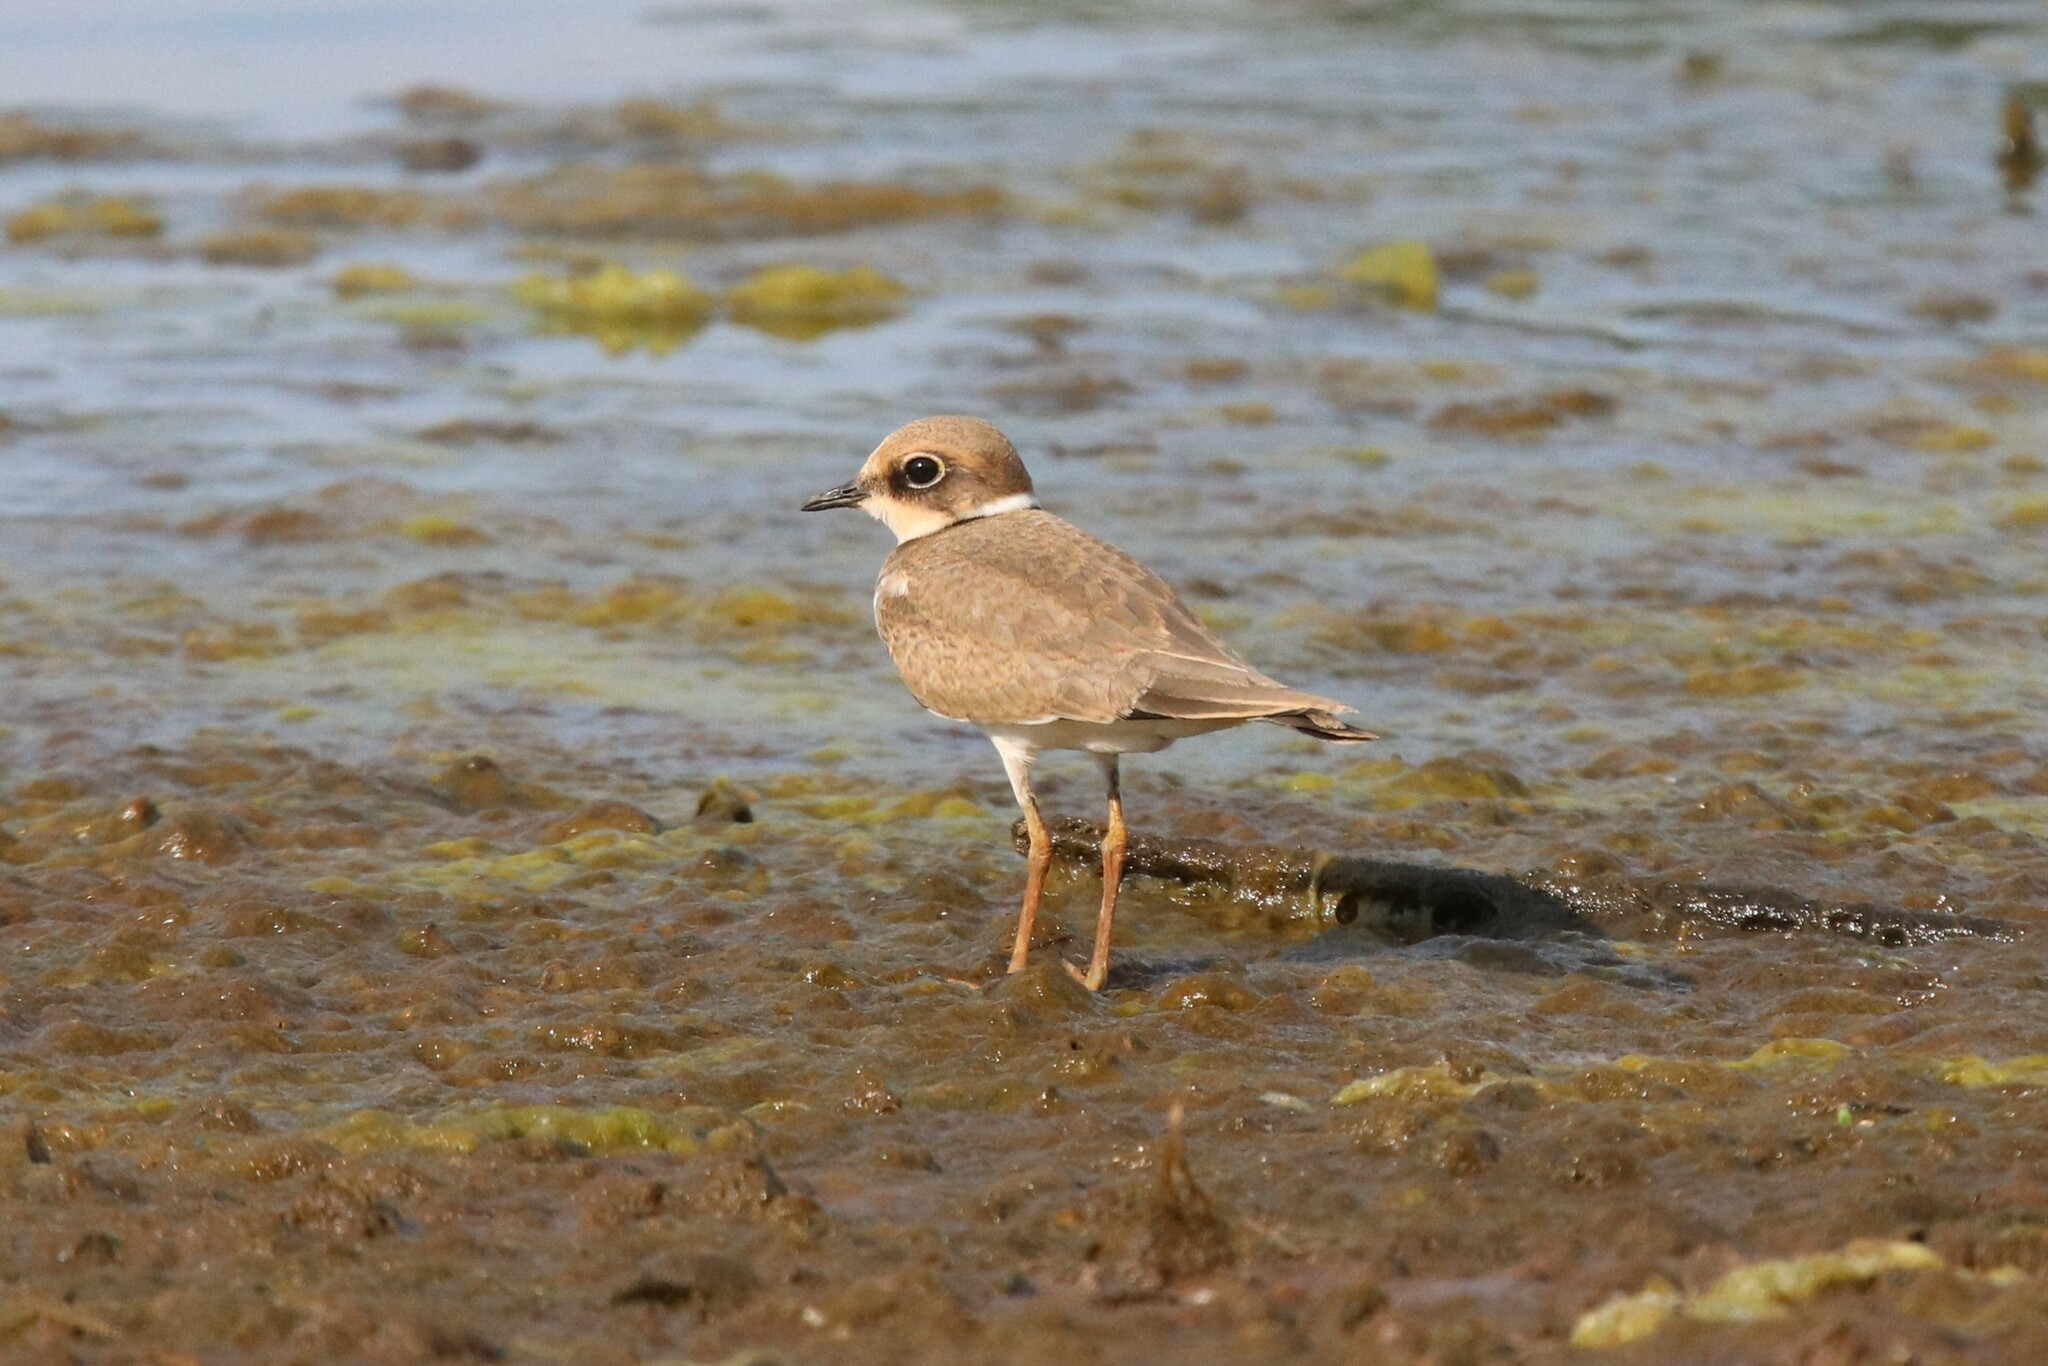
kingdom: Animalia
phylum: Chordata
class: Aves
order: Charadriiformes
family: Charadriidae
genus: Charadrius
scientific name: Charadrius dubius
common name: Little ringed plover
